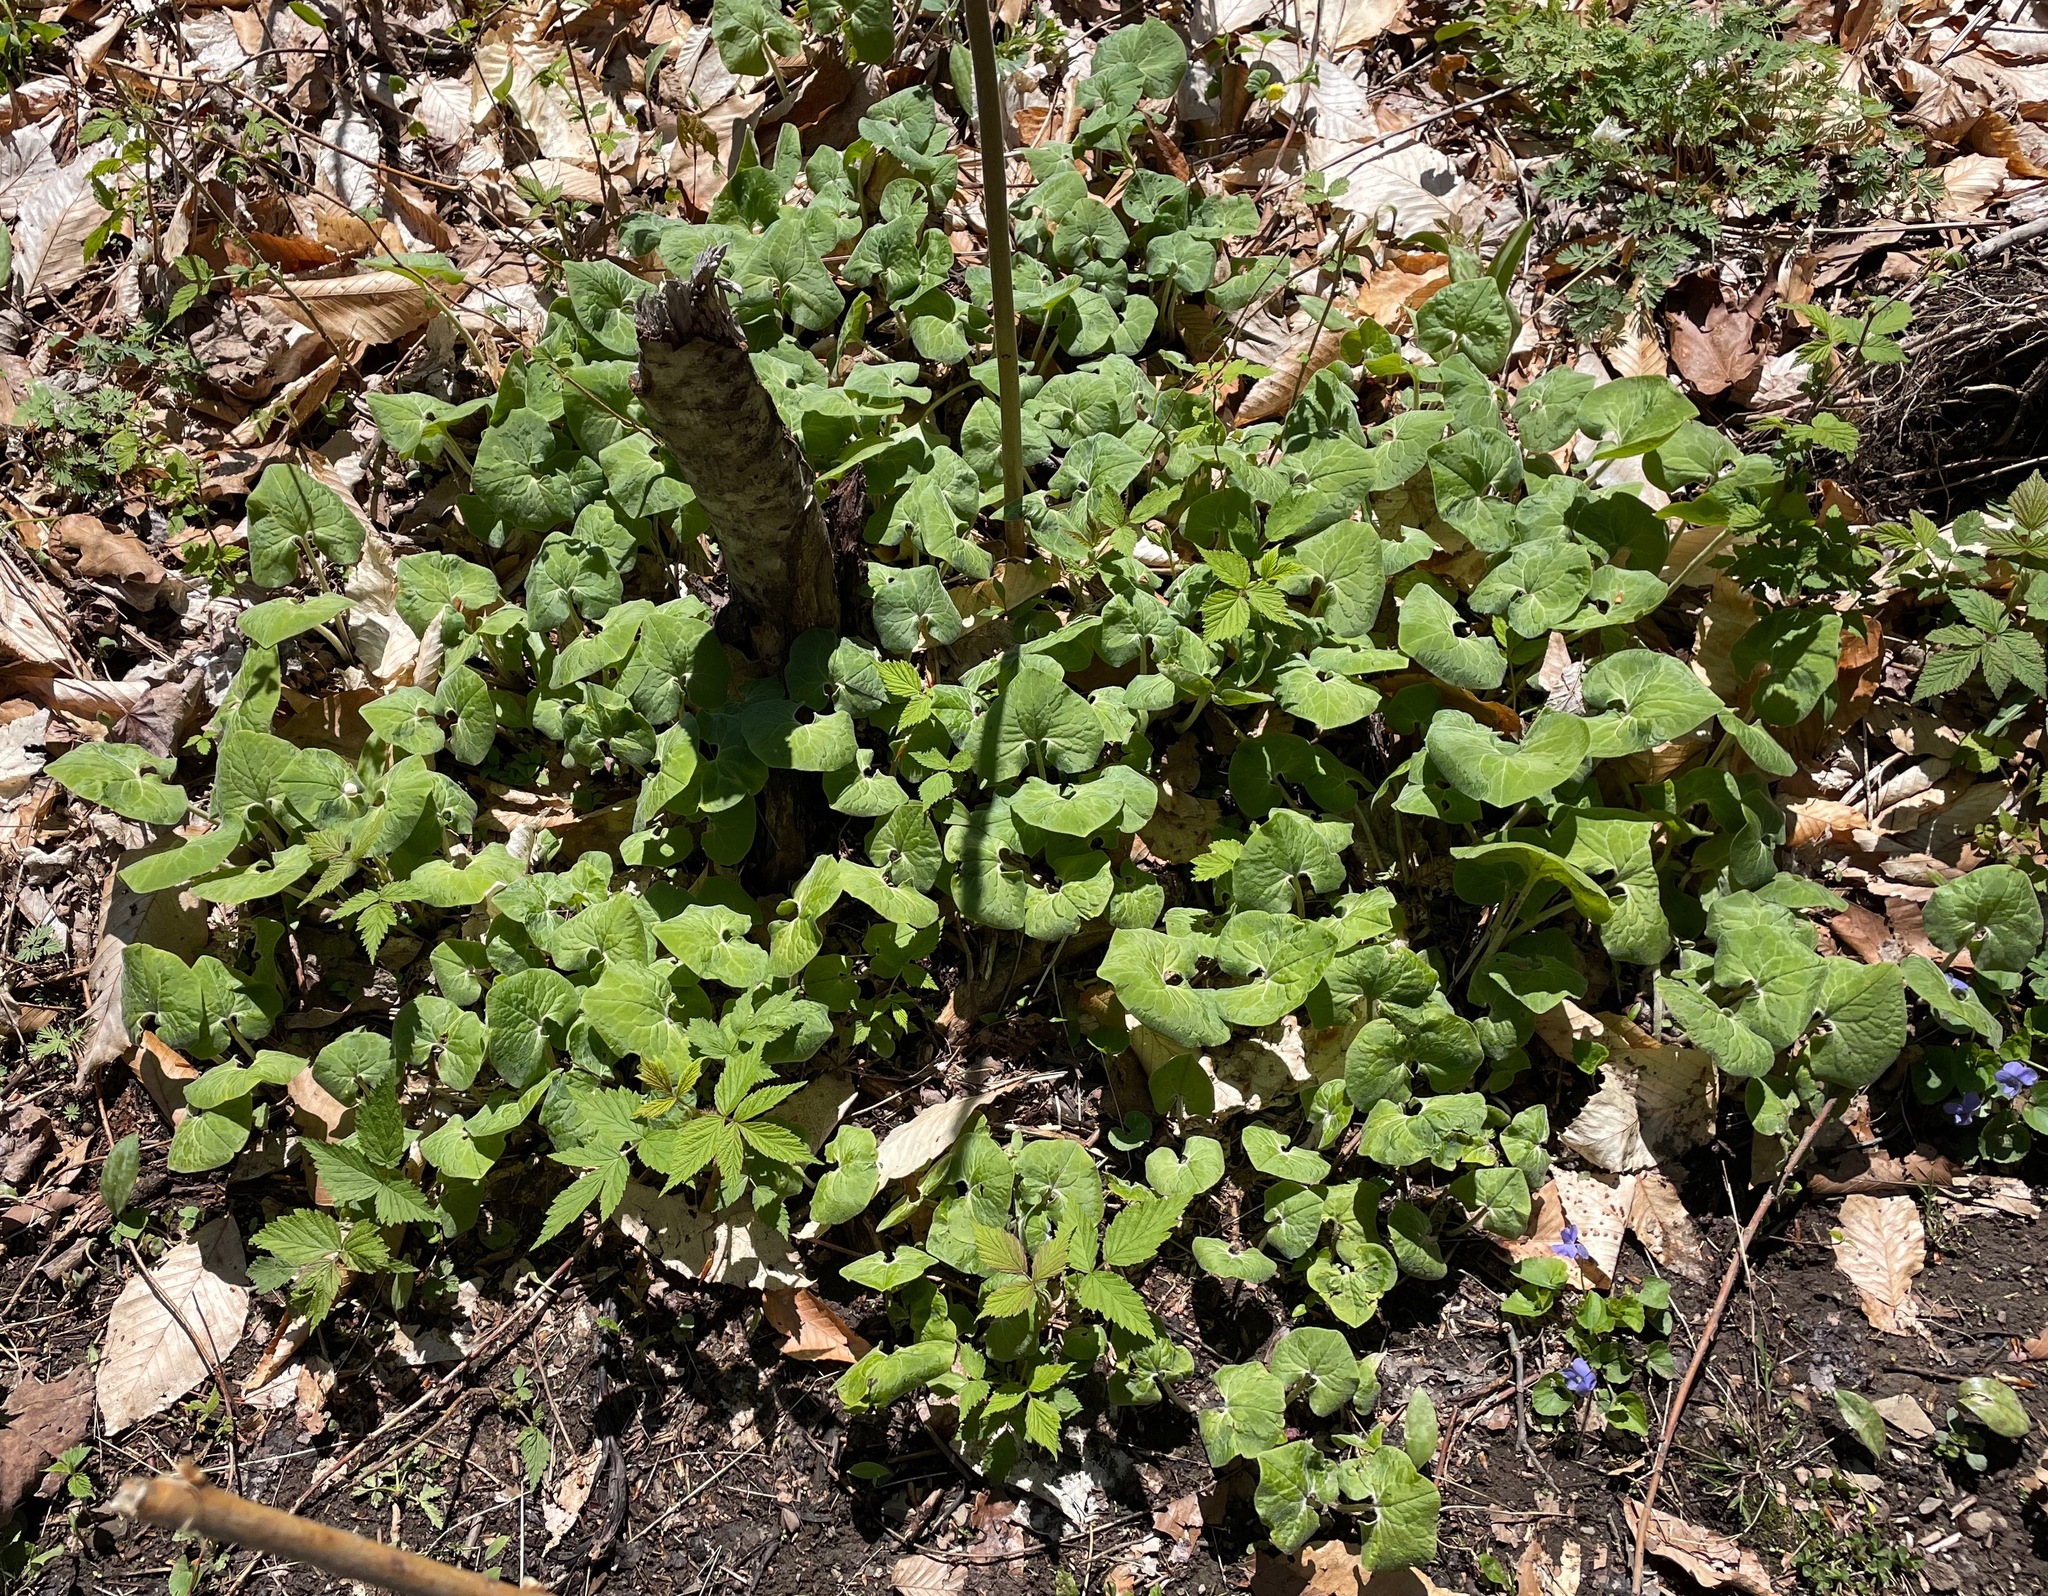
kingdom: Plantae
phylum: Tracheophyta
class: Magnoliopsida
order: Piperales
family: Aristolochiaceae
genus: Asarum
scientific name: Asarum canadense
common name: Wild ginger
